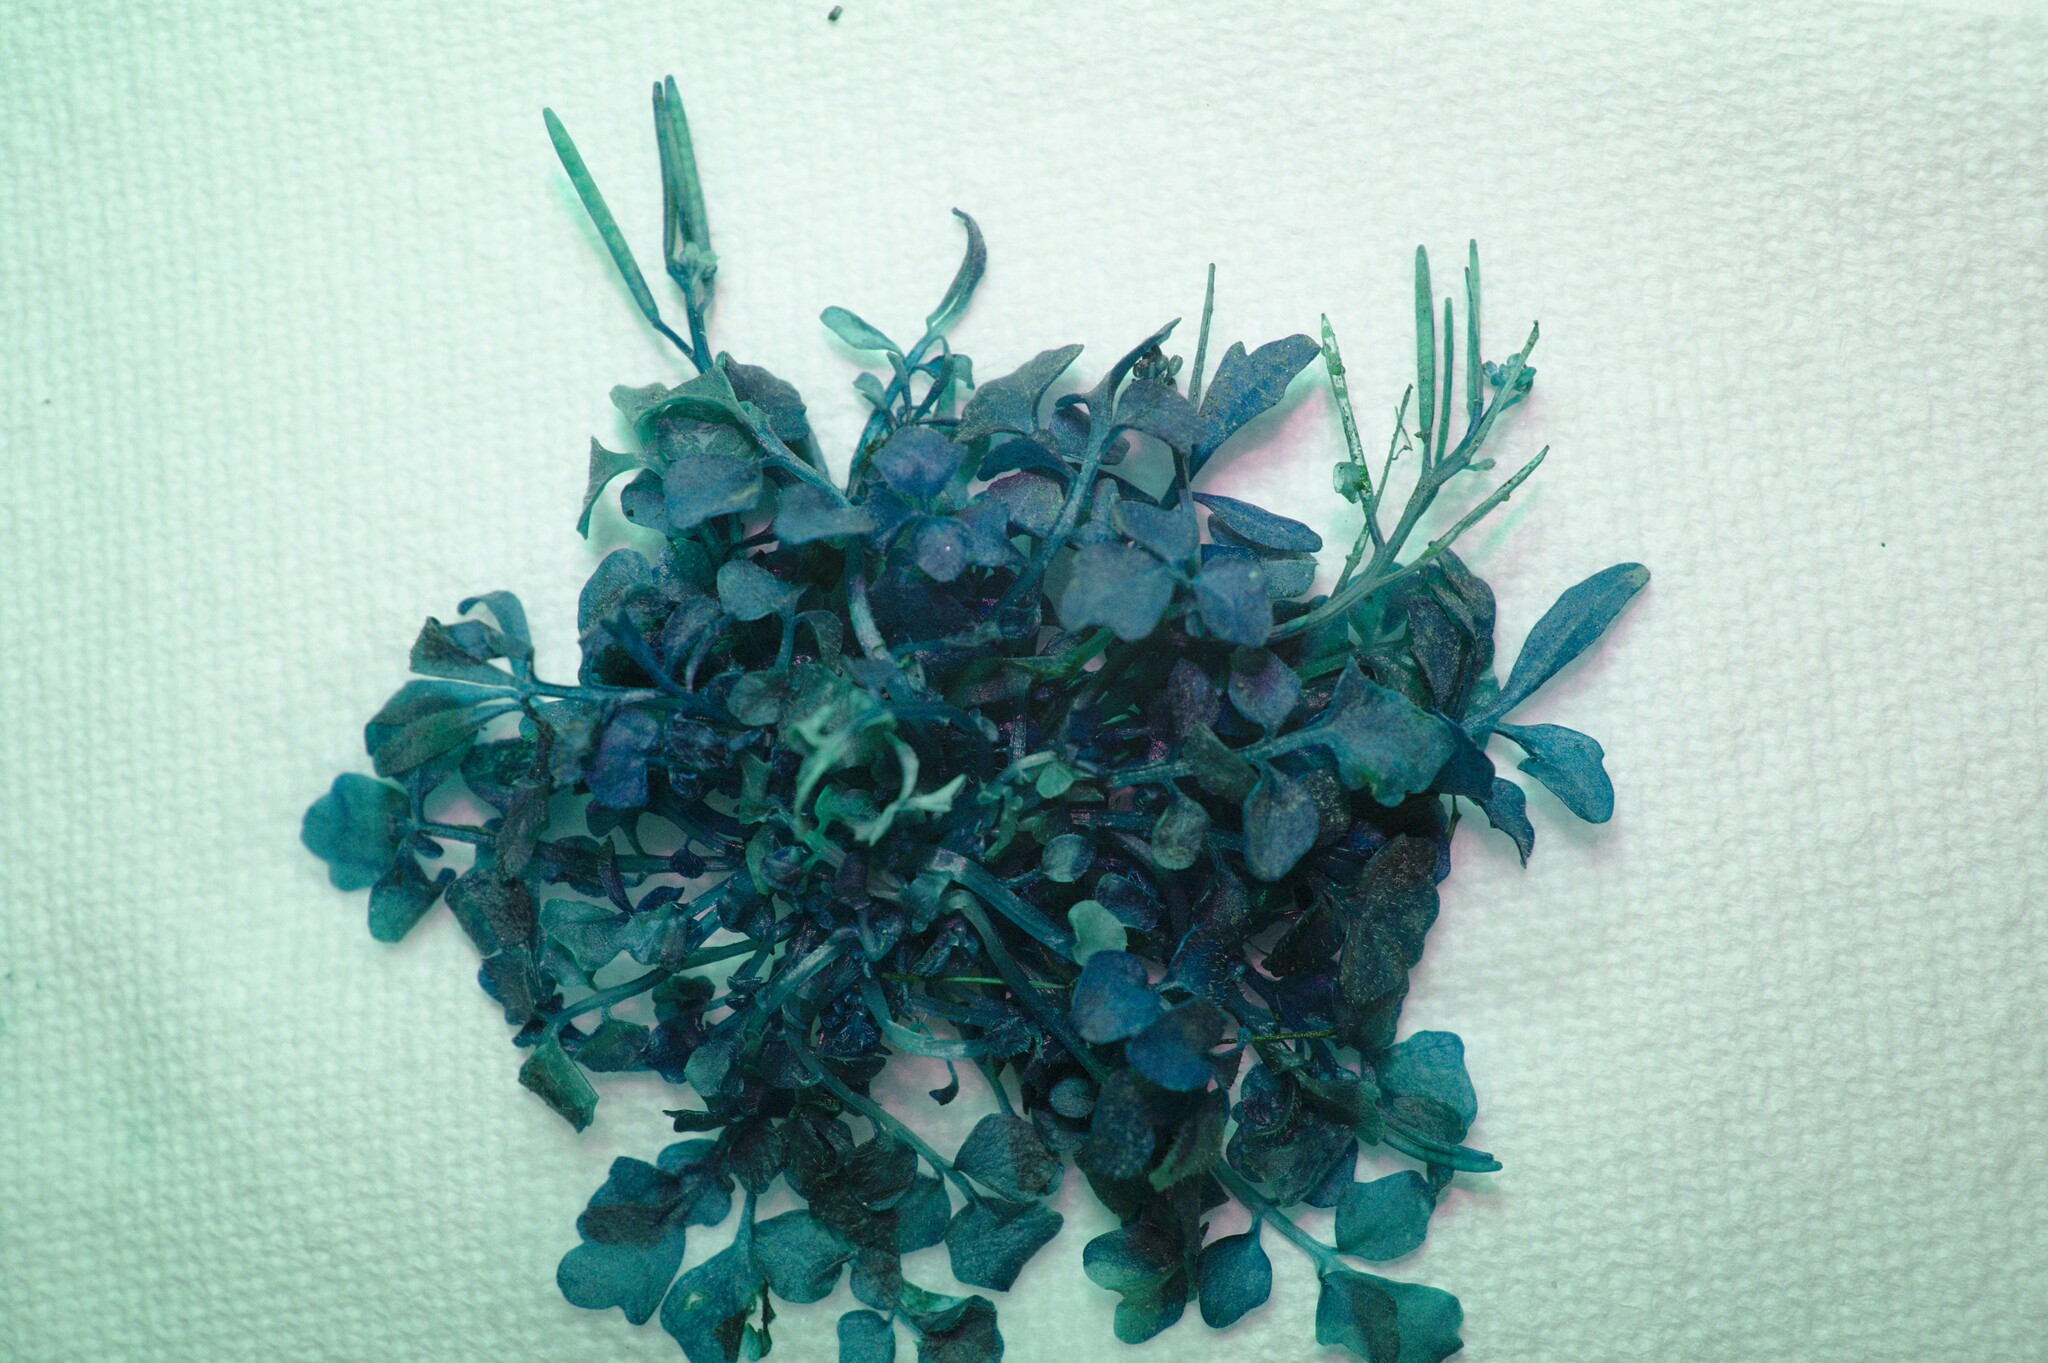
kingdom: Plantae
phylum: Tracheophyta
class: Magnoliopsida
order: Brassicales
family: Brassicaceae
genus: Cardamine
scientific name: Cardamine hirsuta
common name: Hairy bittercress
